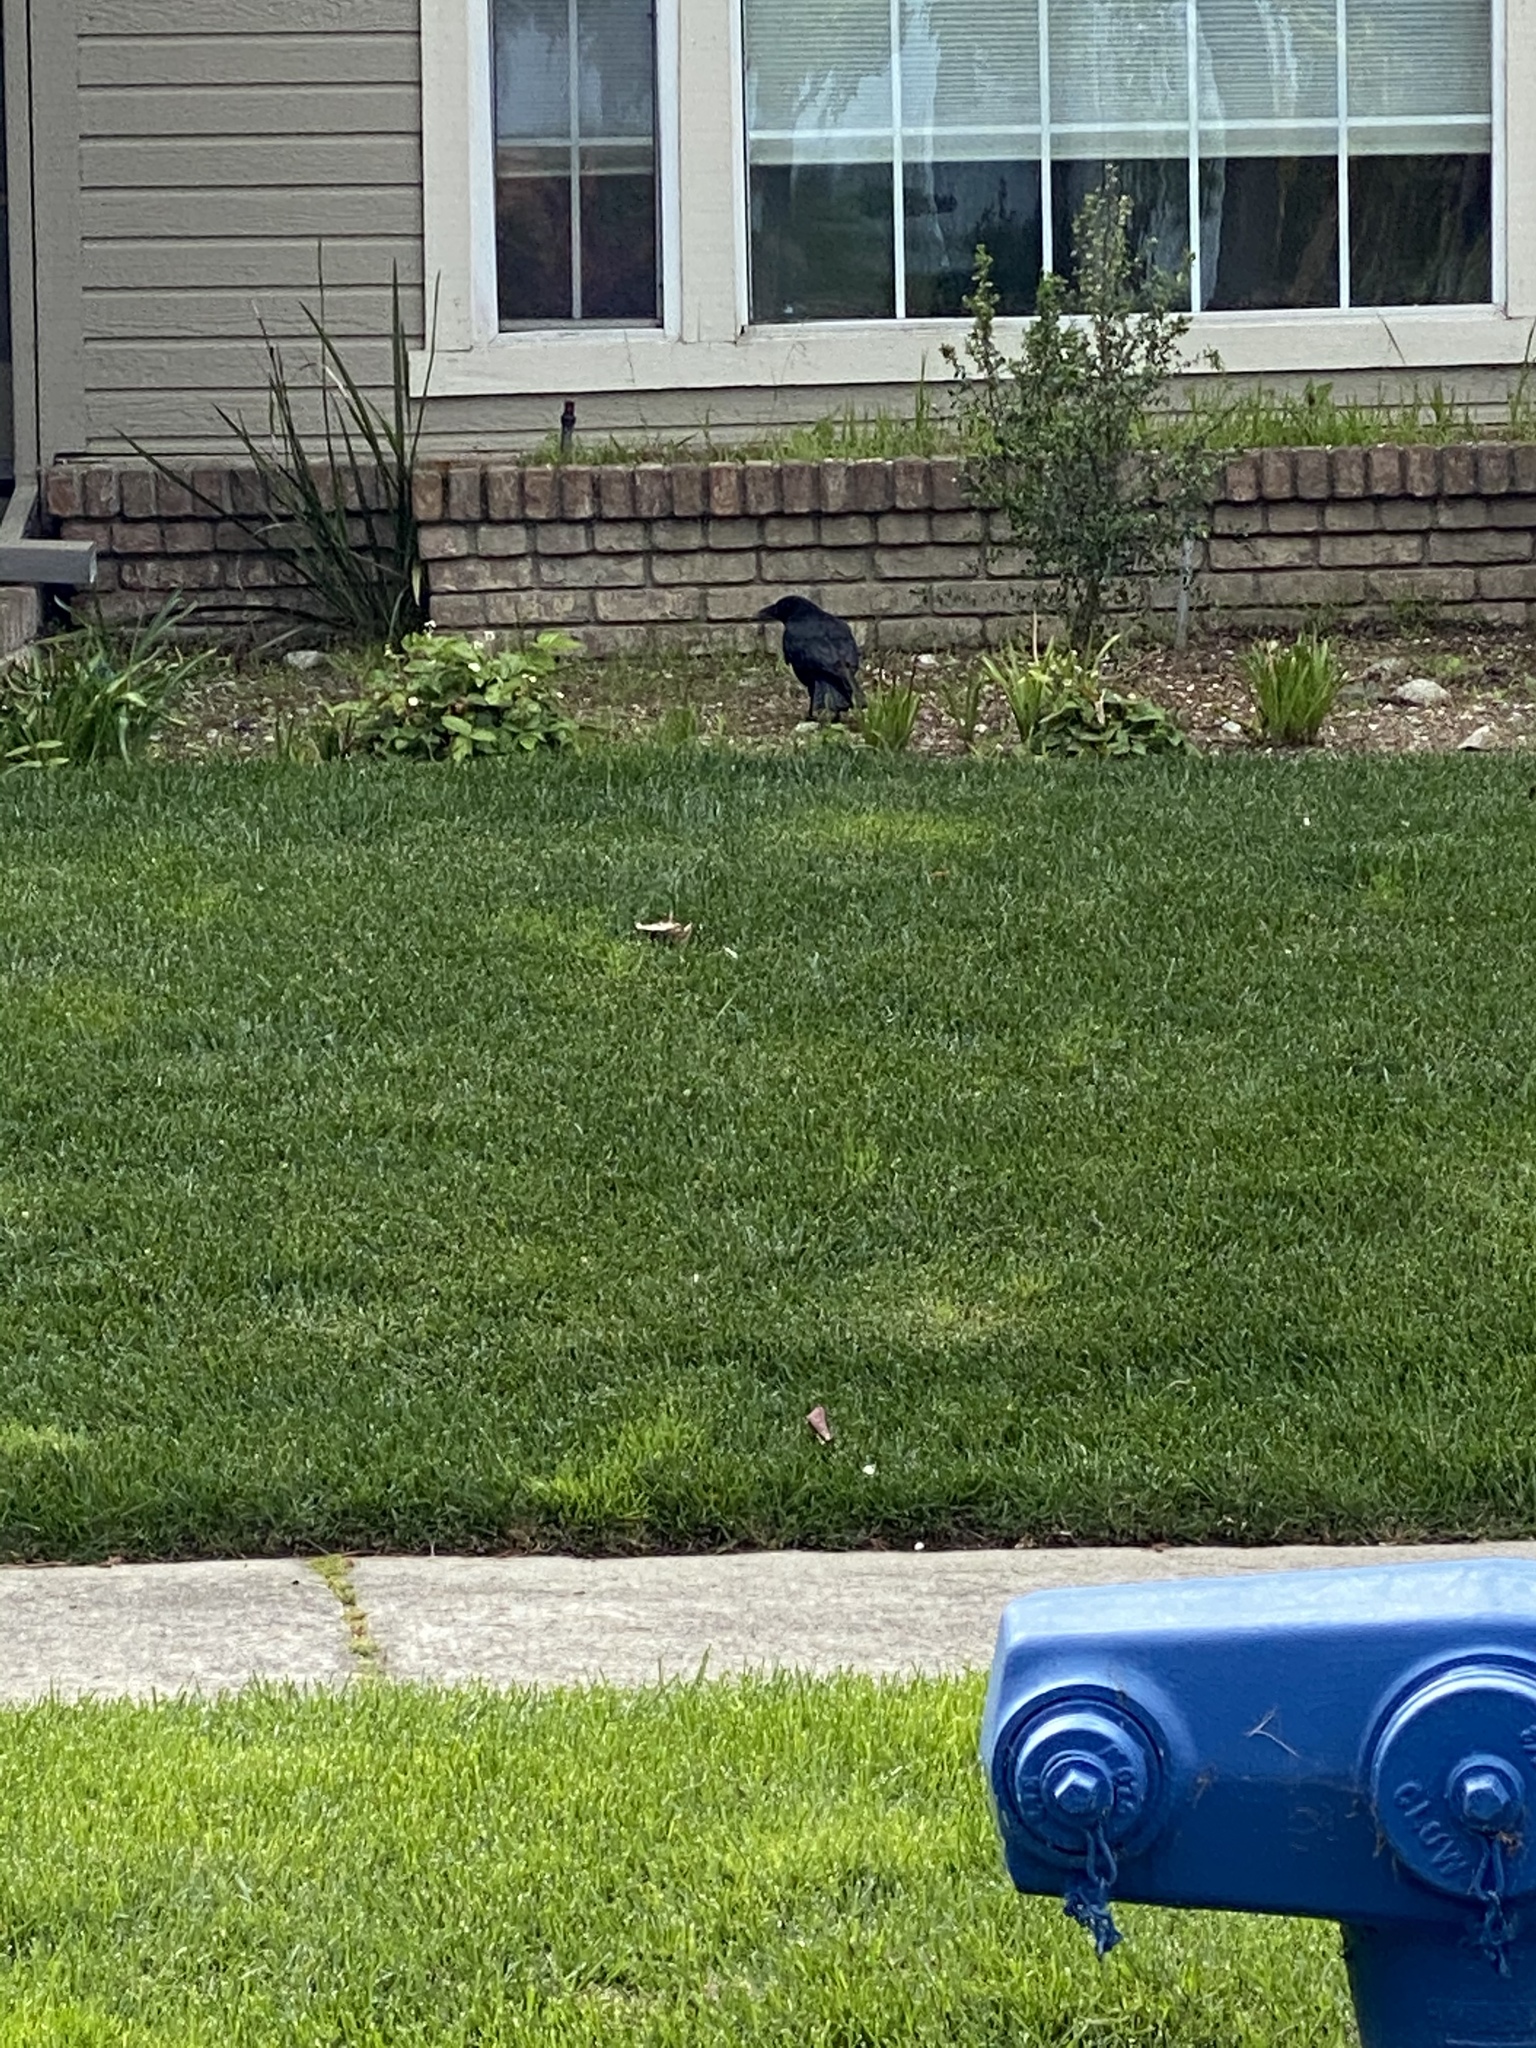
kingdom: Animalia
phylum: Chordata
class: Aves
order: Passeriformes
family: Corvidae
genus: Corvus
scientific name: Corvus brachyrhynchos
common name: American crow
